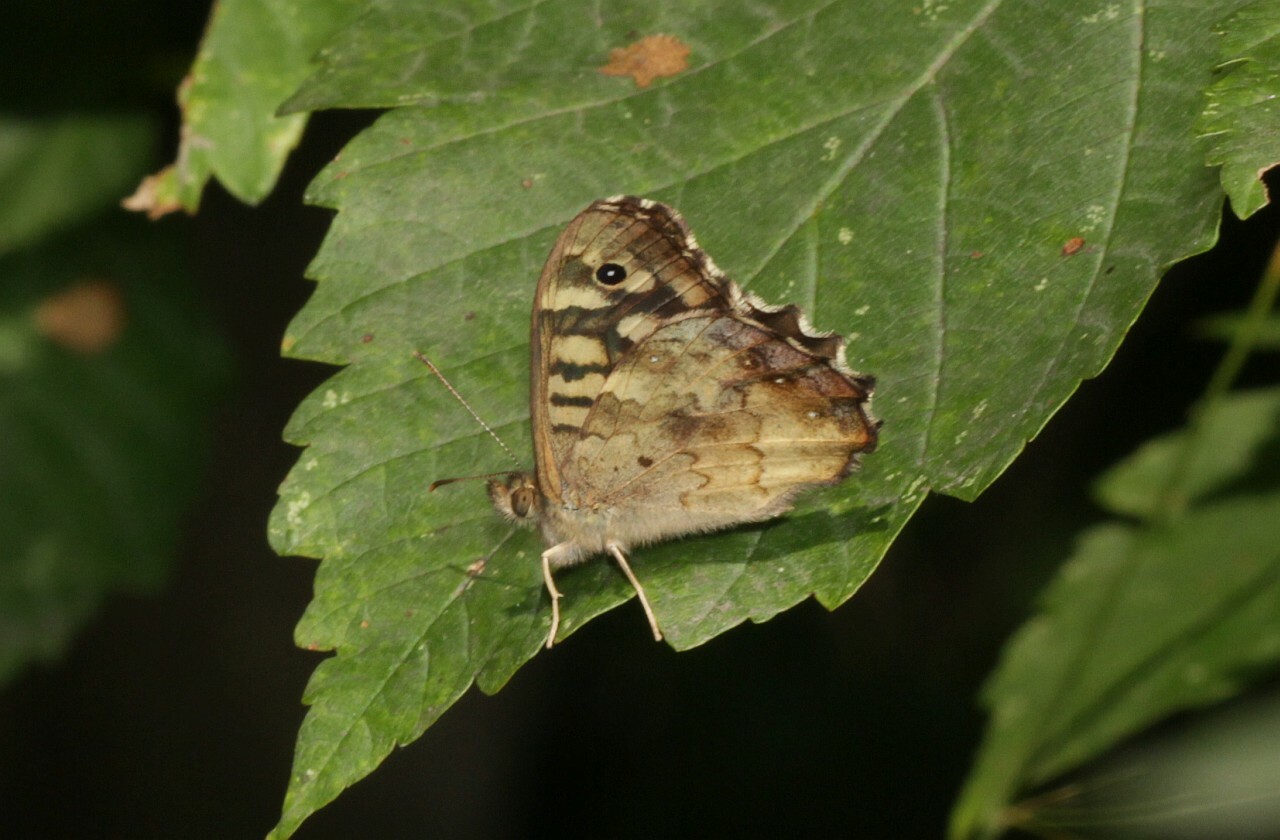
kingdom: Animalia
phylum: Arthropoda
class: Insecta
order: Lepidoptera
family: Nymphalidae
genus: Pararge
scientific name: Pararge aegeria
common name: Speckled wood
